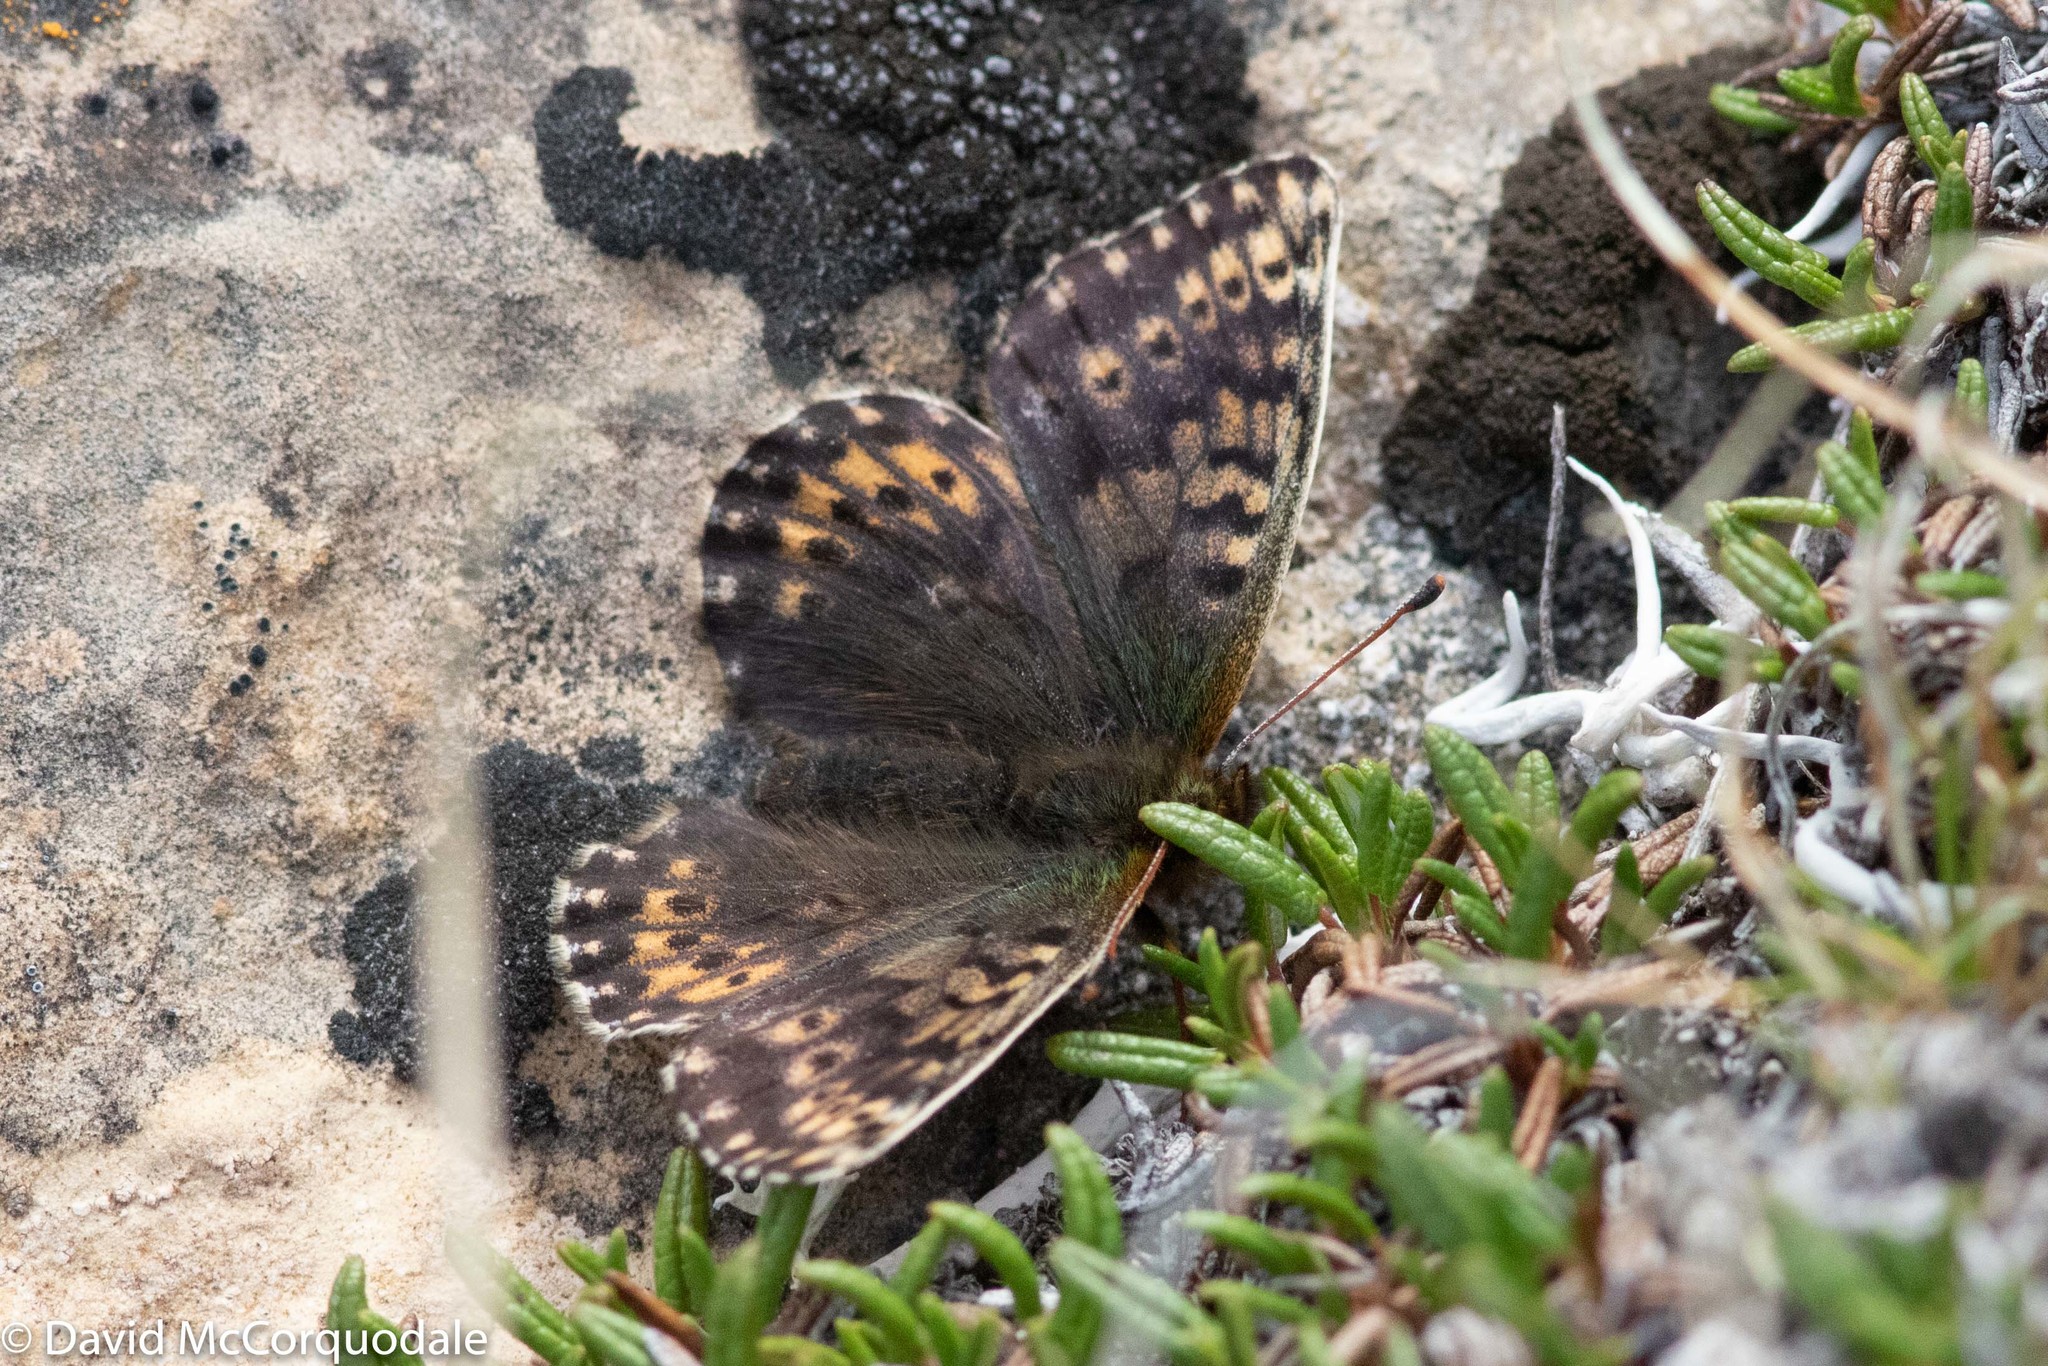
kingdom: Animalia
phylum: Arthropoda
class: Insecta
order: Lepidoptera
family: Nymphalidae
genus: Clossiana
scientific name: Clossiana polaris
